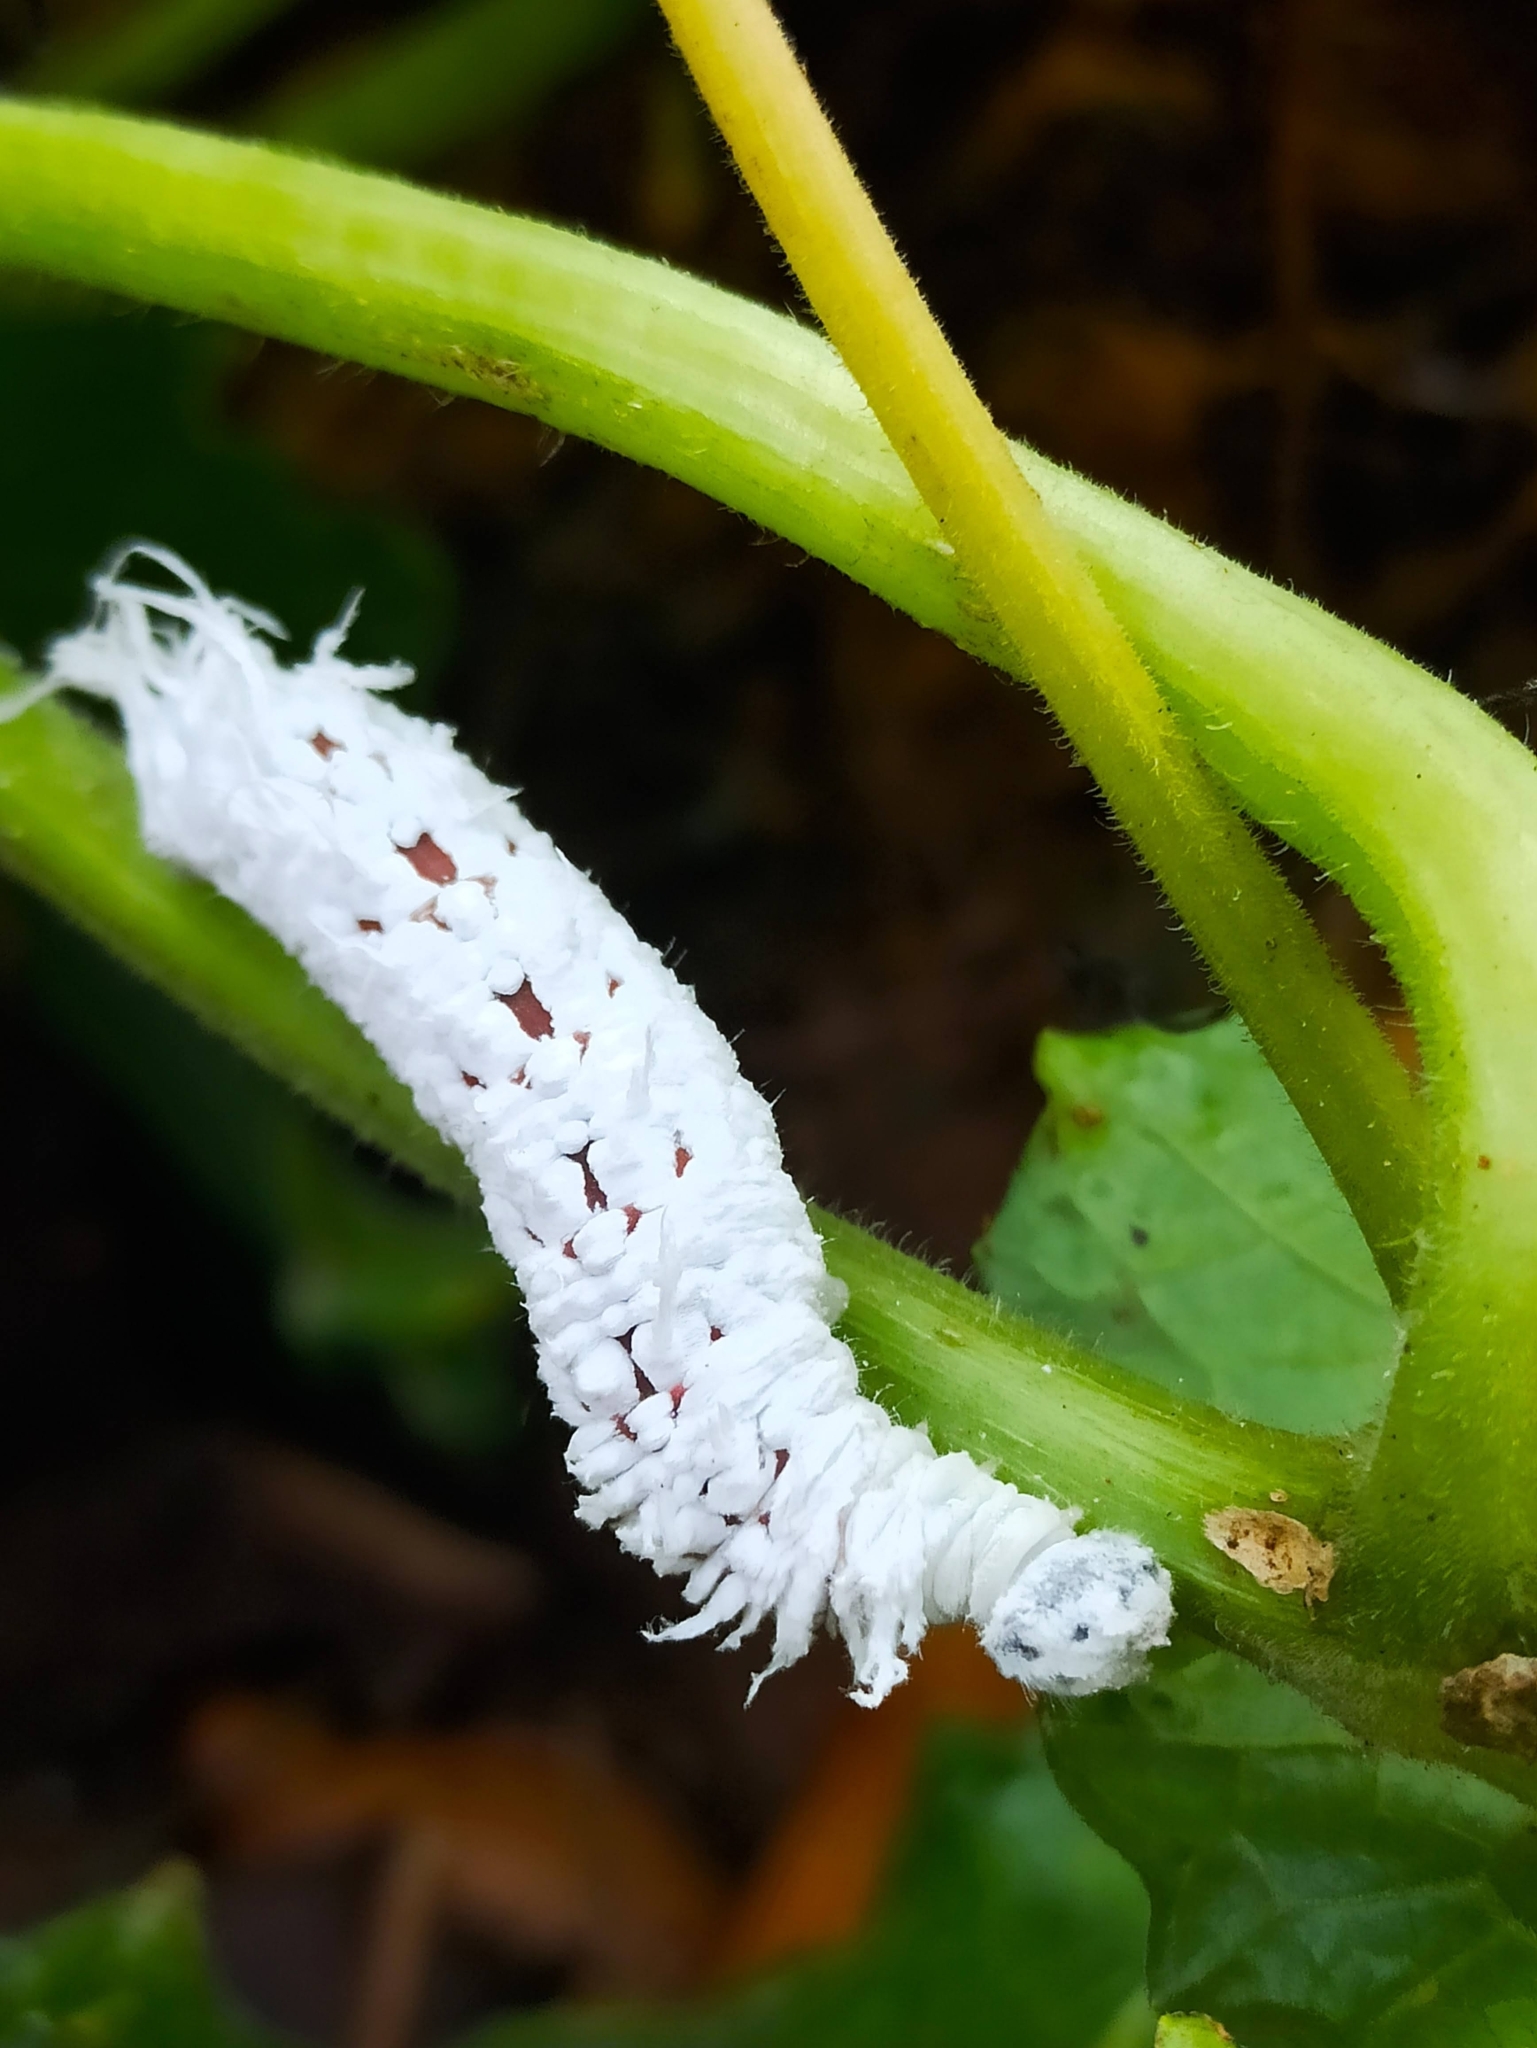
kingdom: Animalia
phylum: Arthropoda
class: Insecta
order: Lepidoptera
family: Hesperiidae
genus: Gangara
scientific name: Gangara thyrsis
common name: Giant redeye
